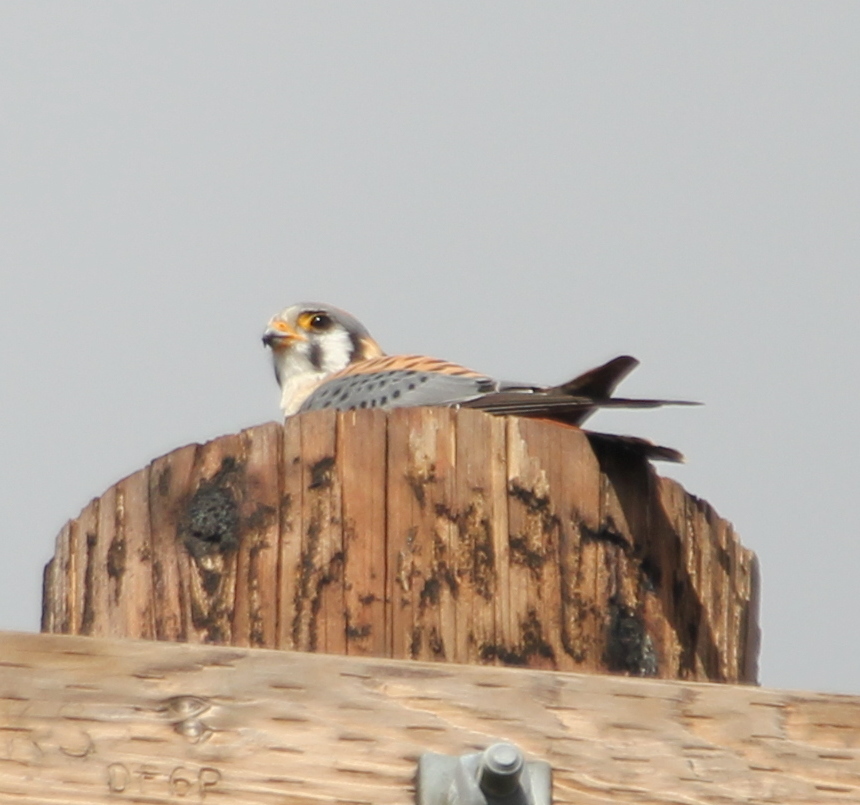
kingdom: Animalia
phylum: Chordata
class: Aves
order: Falconiformes
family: Falconidae
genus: Falco
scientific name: Falco sparverius
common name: American kestrel
